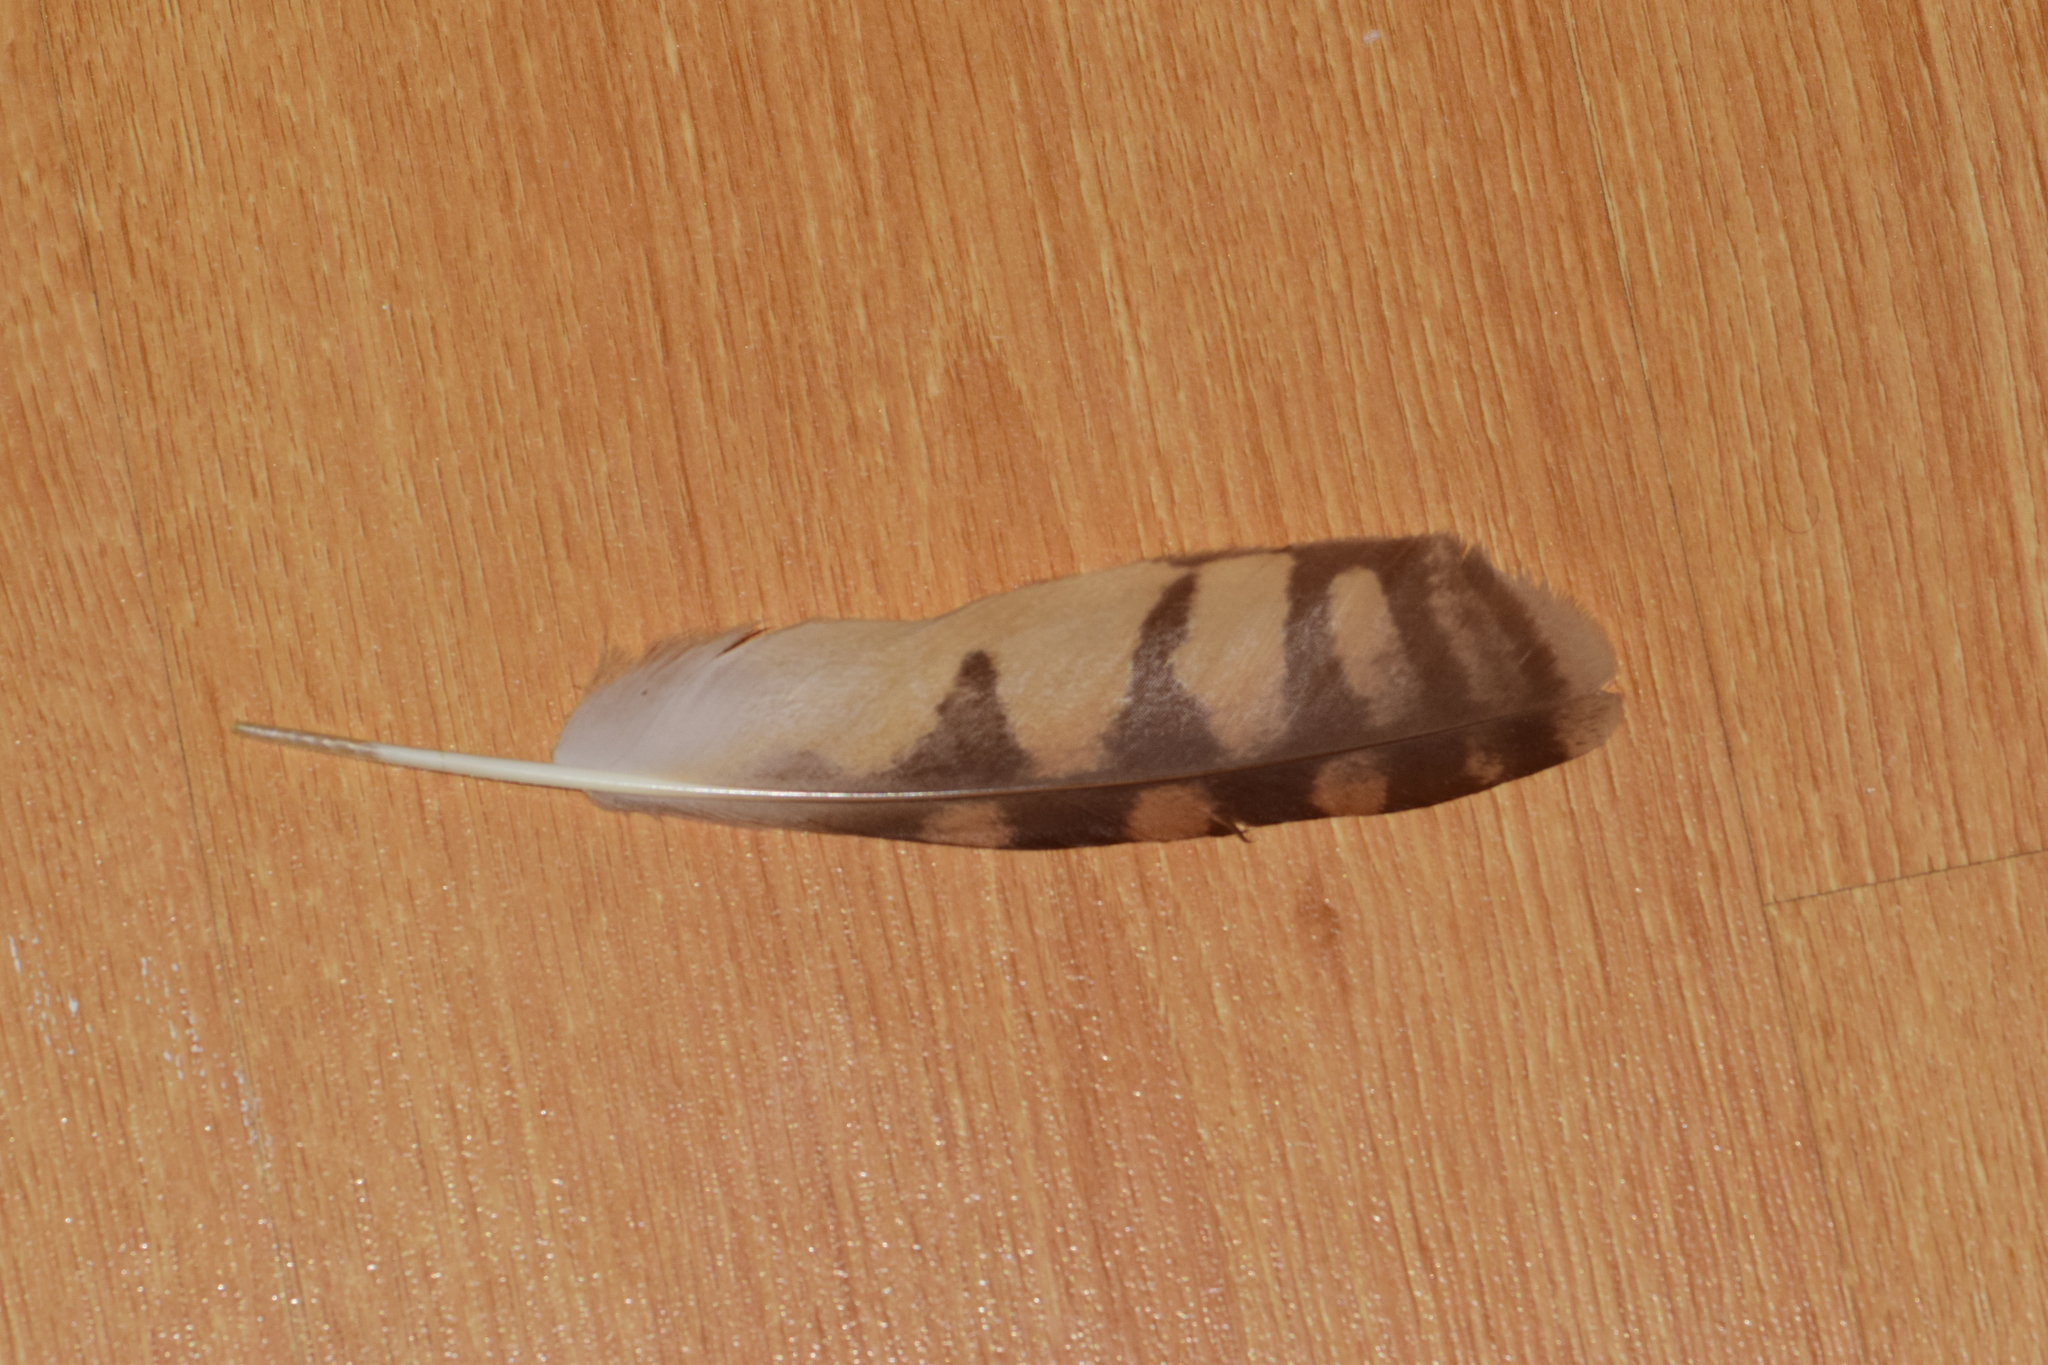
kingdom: Animalia
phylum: Chordata
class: Aves
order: Strigiformes
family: Strigidae
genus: Asio
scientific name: Asio flammeus
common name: Short-eared owl
